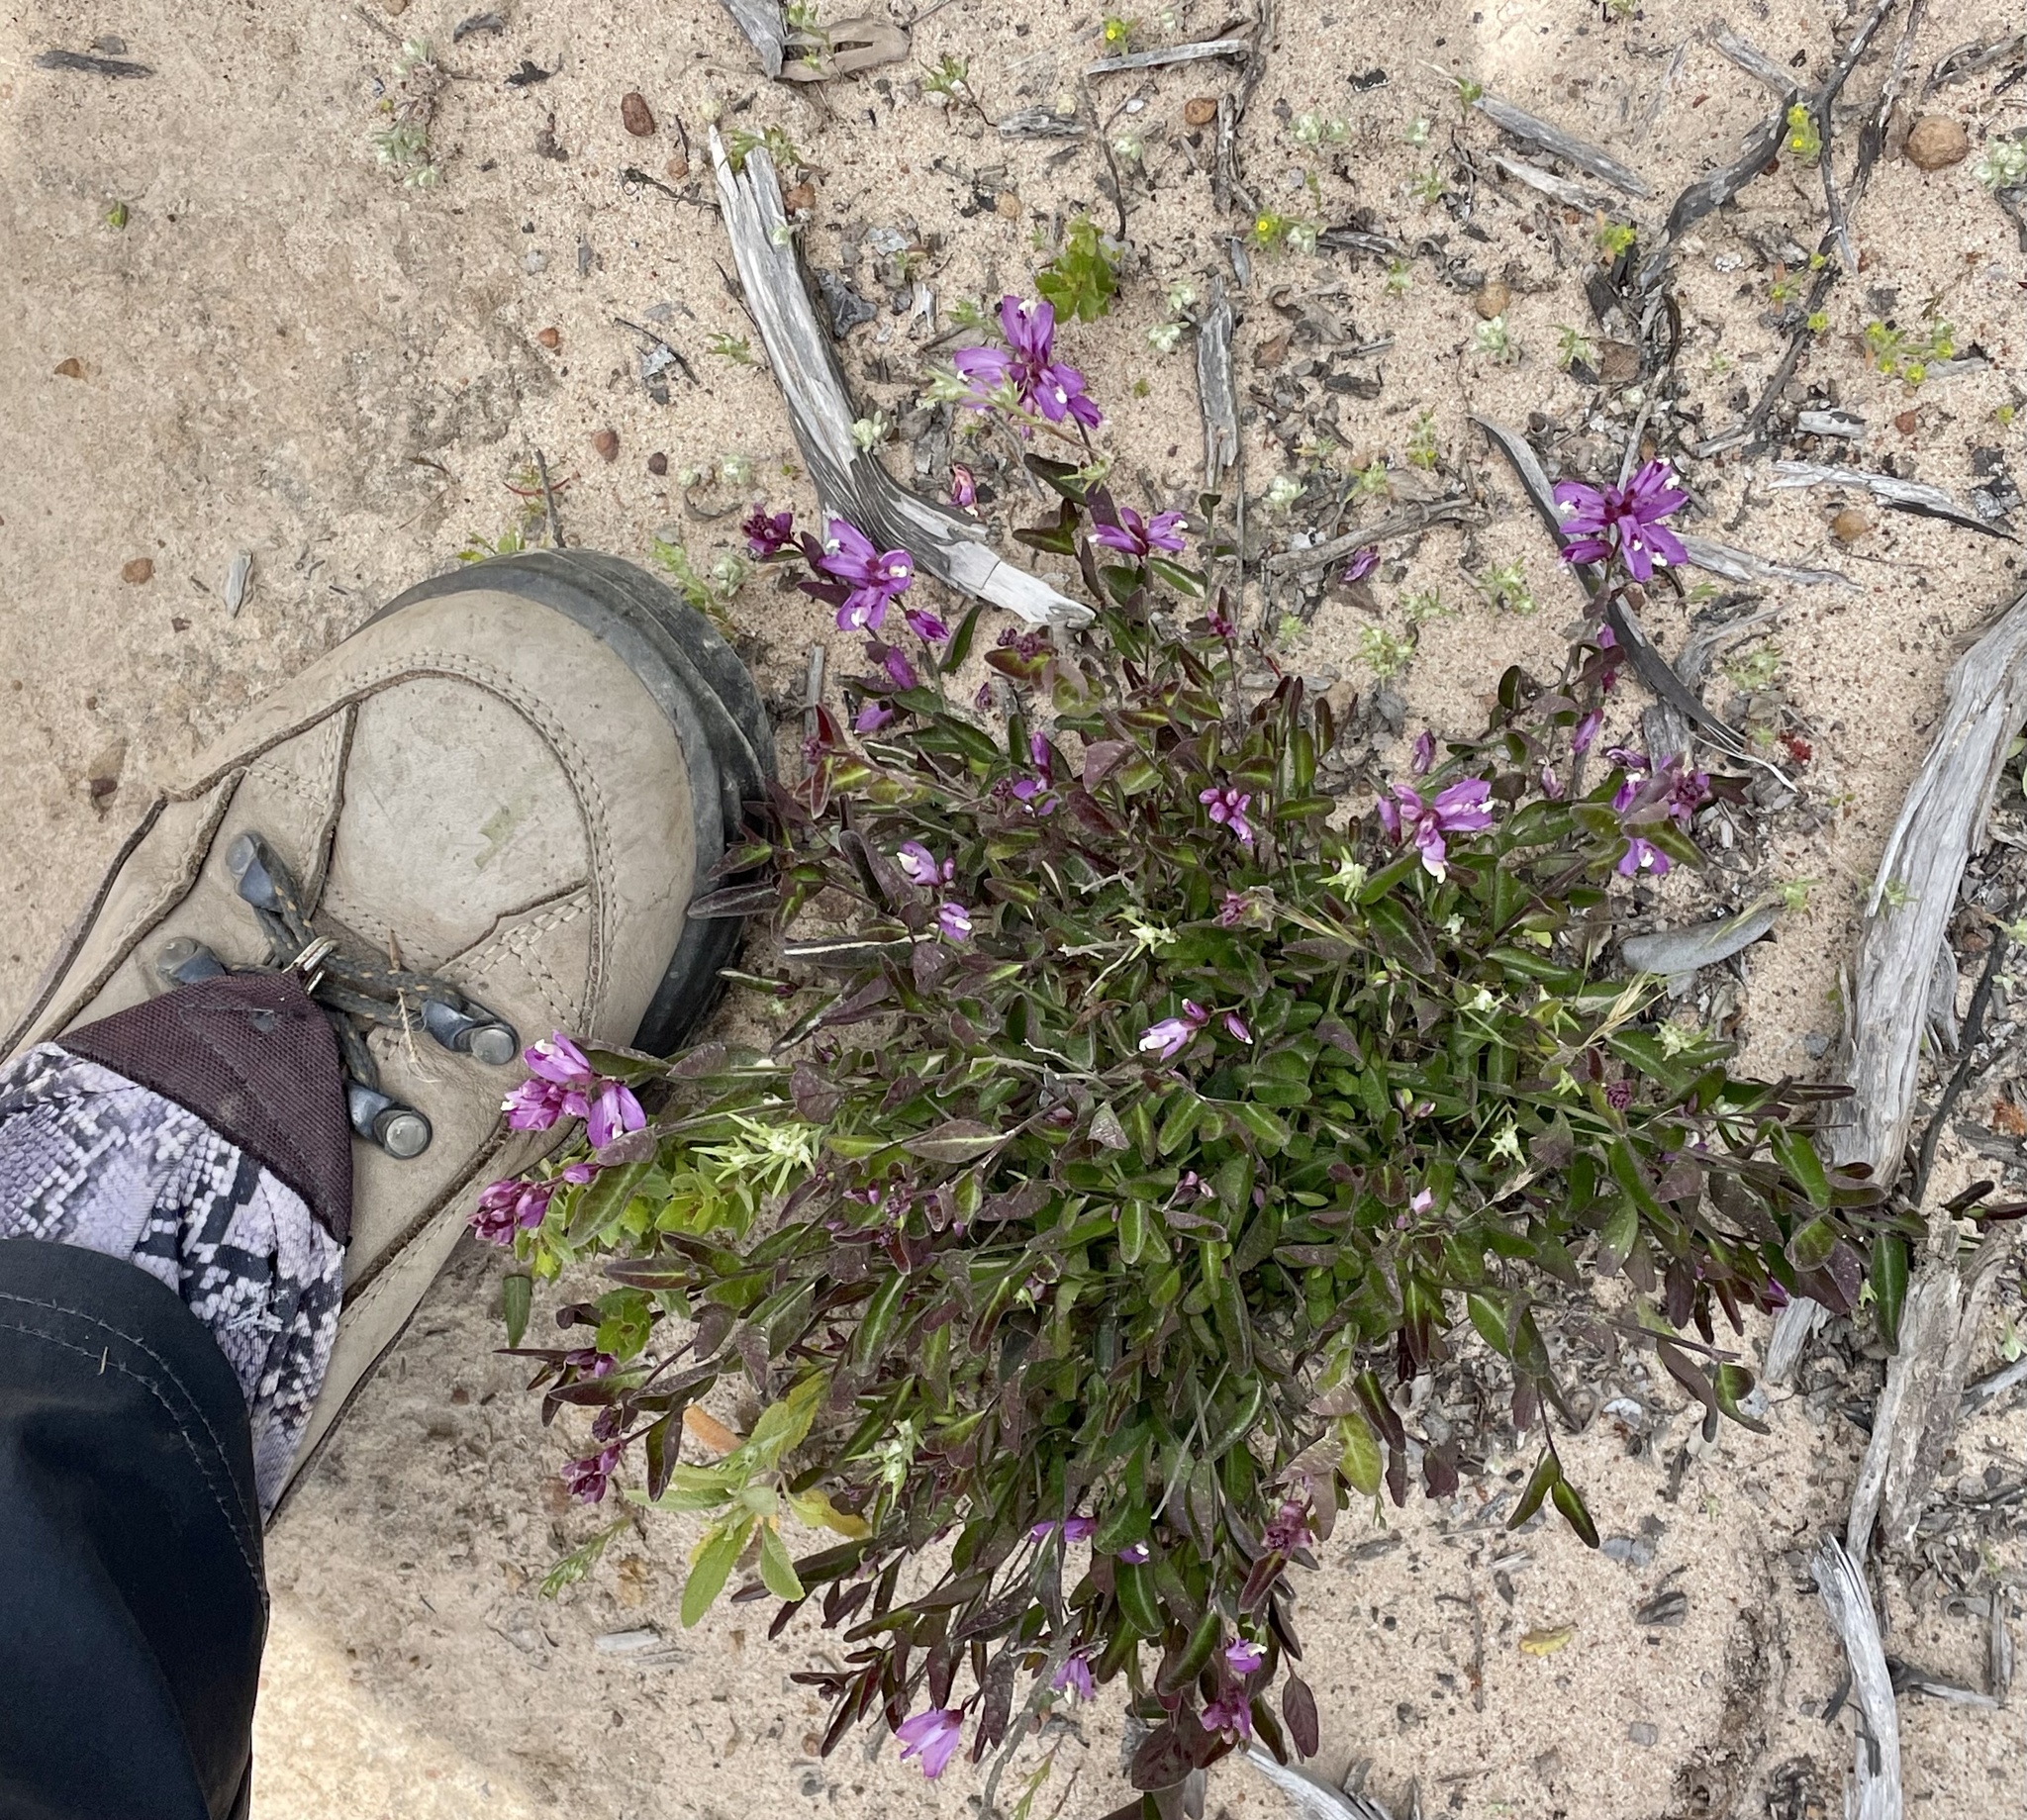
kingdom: Plantae
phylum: Tracheophyta
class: Magnoliopsida
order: Fabales
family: Polygalaceae
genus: Rhinotropis
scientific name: Rhinotropis californica
